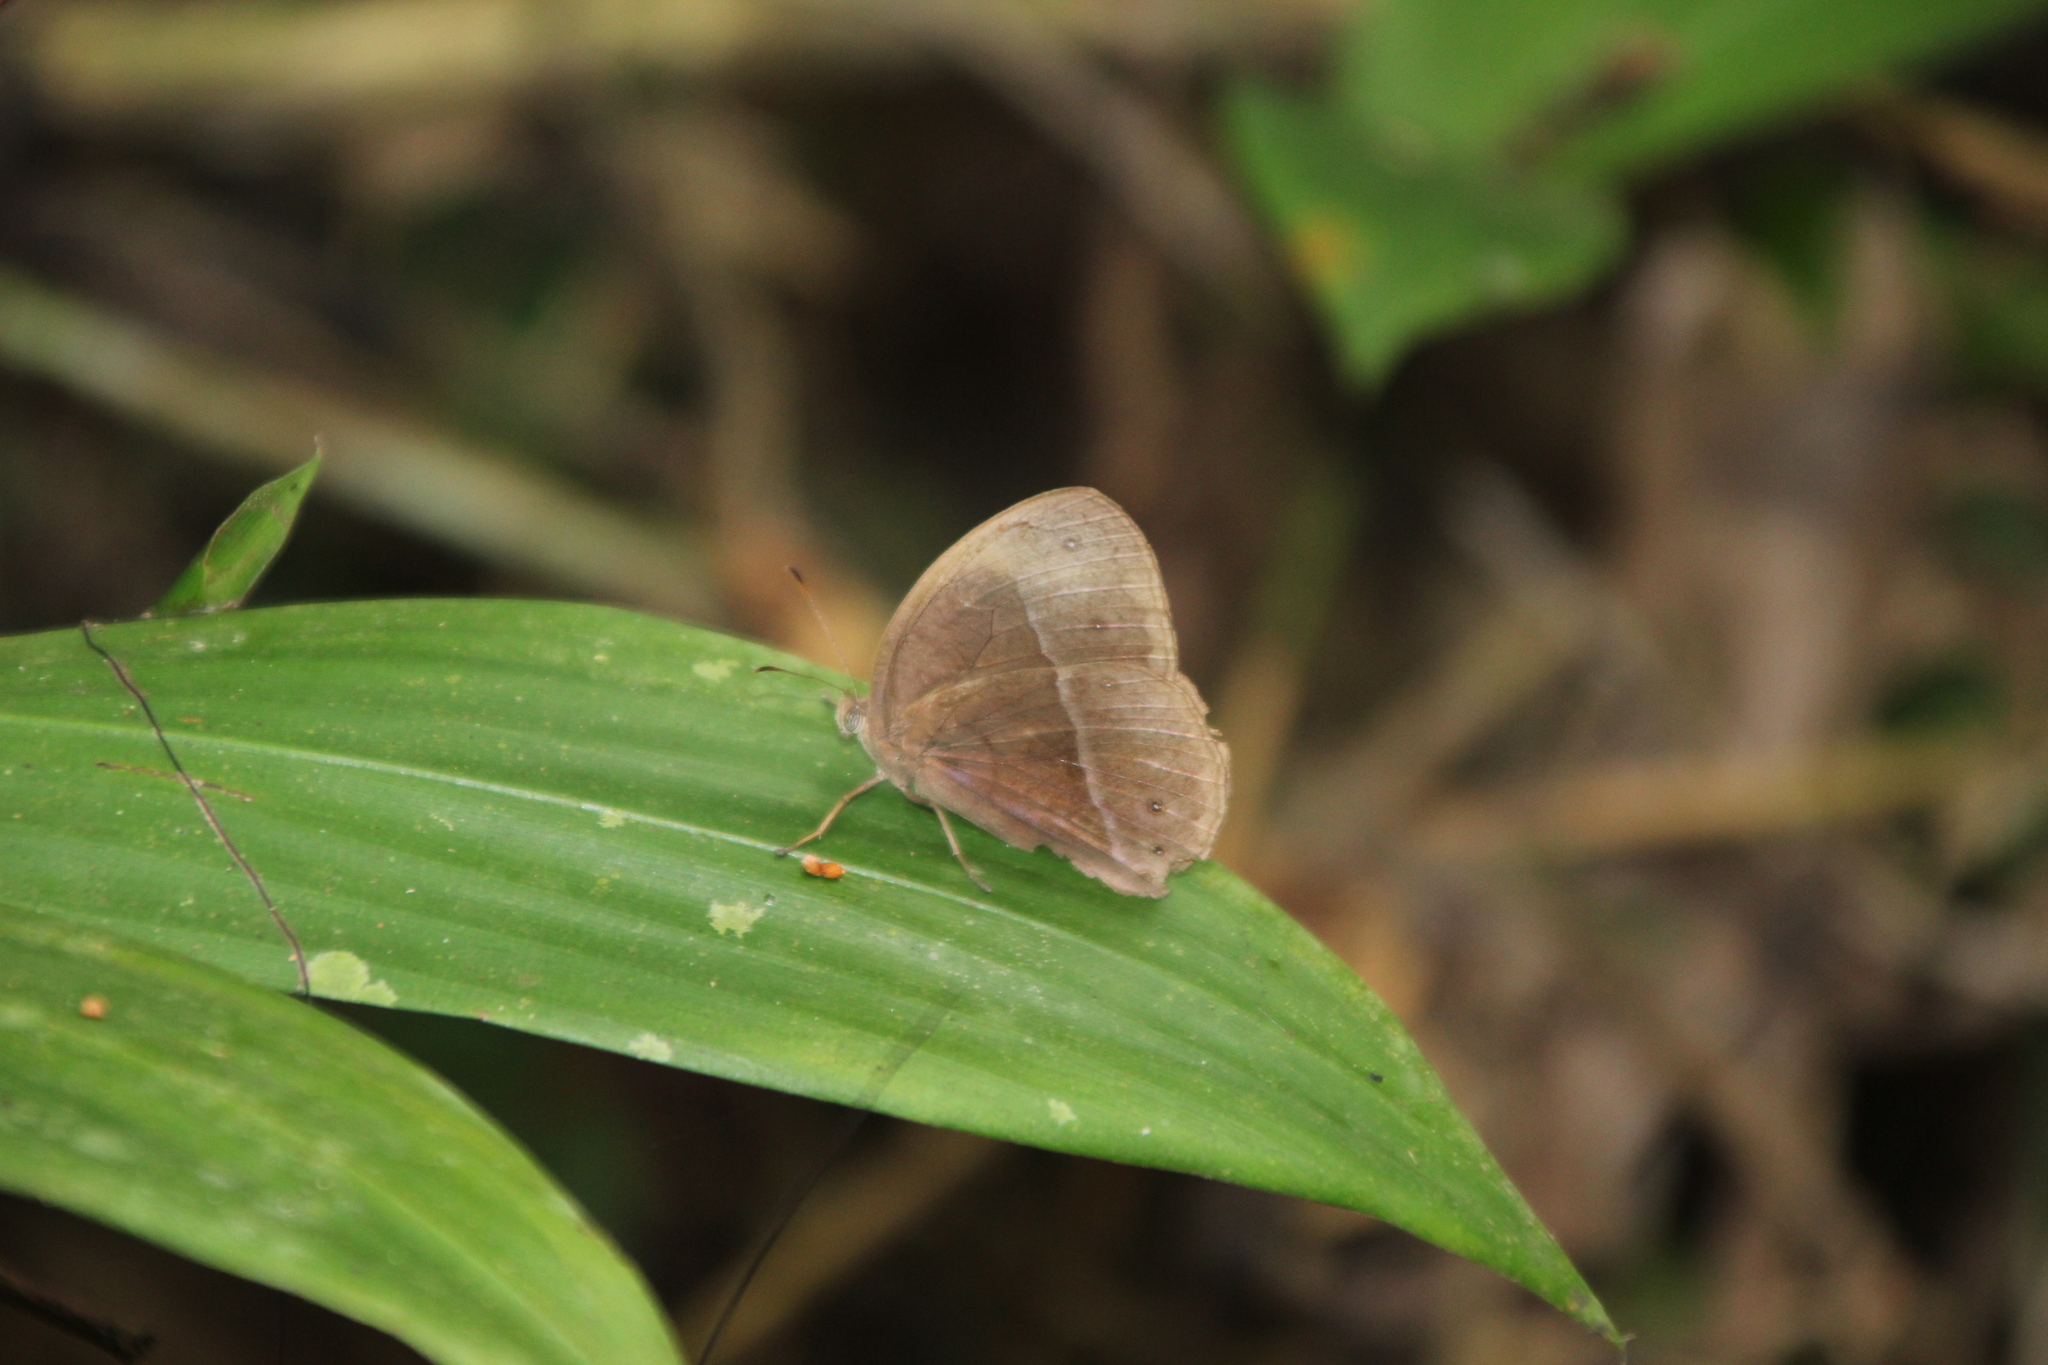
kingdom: Animalia
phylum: Arthropoda
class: Insecta
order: Lepidoptera
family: Nymphalidae
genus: Bicyclus
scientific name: Bicyclus mollitia
